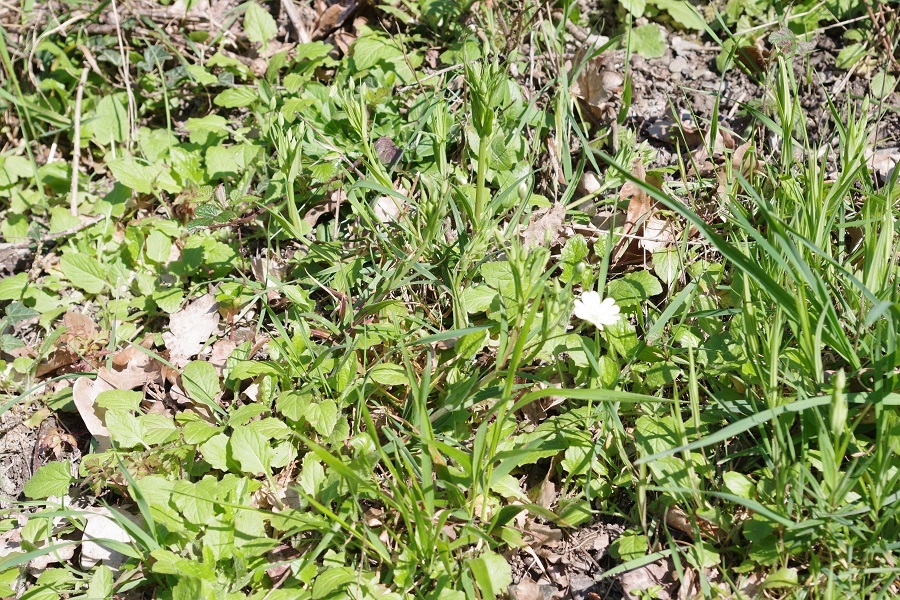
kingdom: Plantae
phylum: Tracheophyta
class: Magnoliopsida
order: Caryophyllales
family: Caryophyllaceae
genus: Rabelera
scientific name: Rabelera holostea
